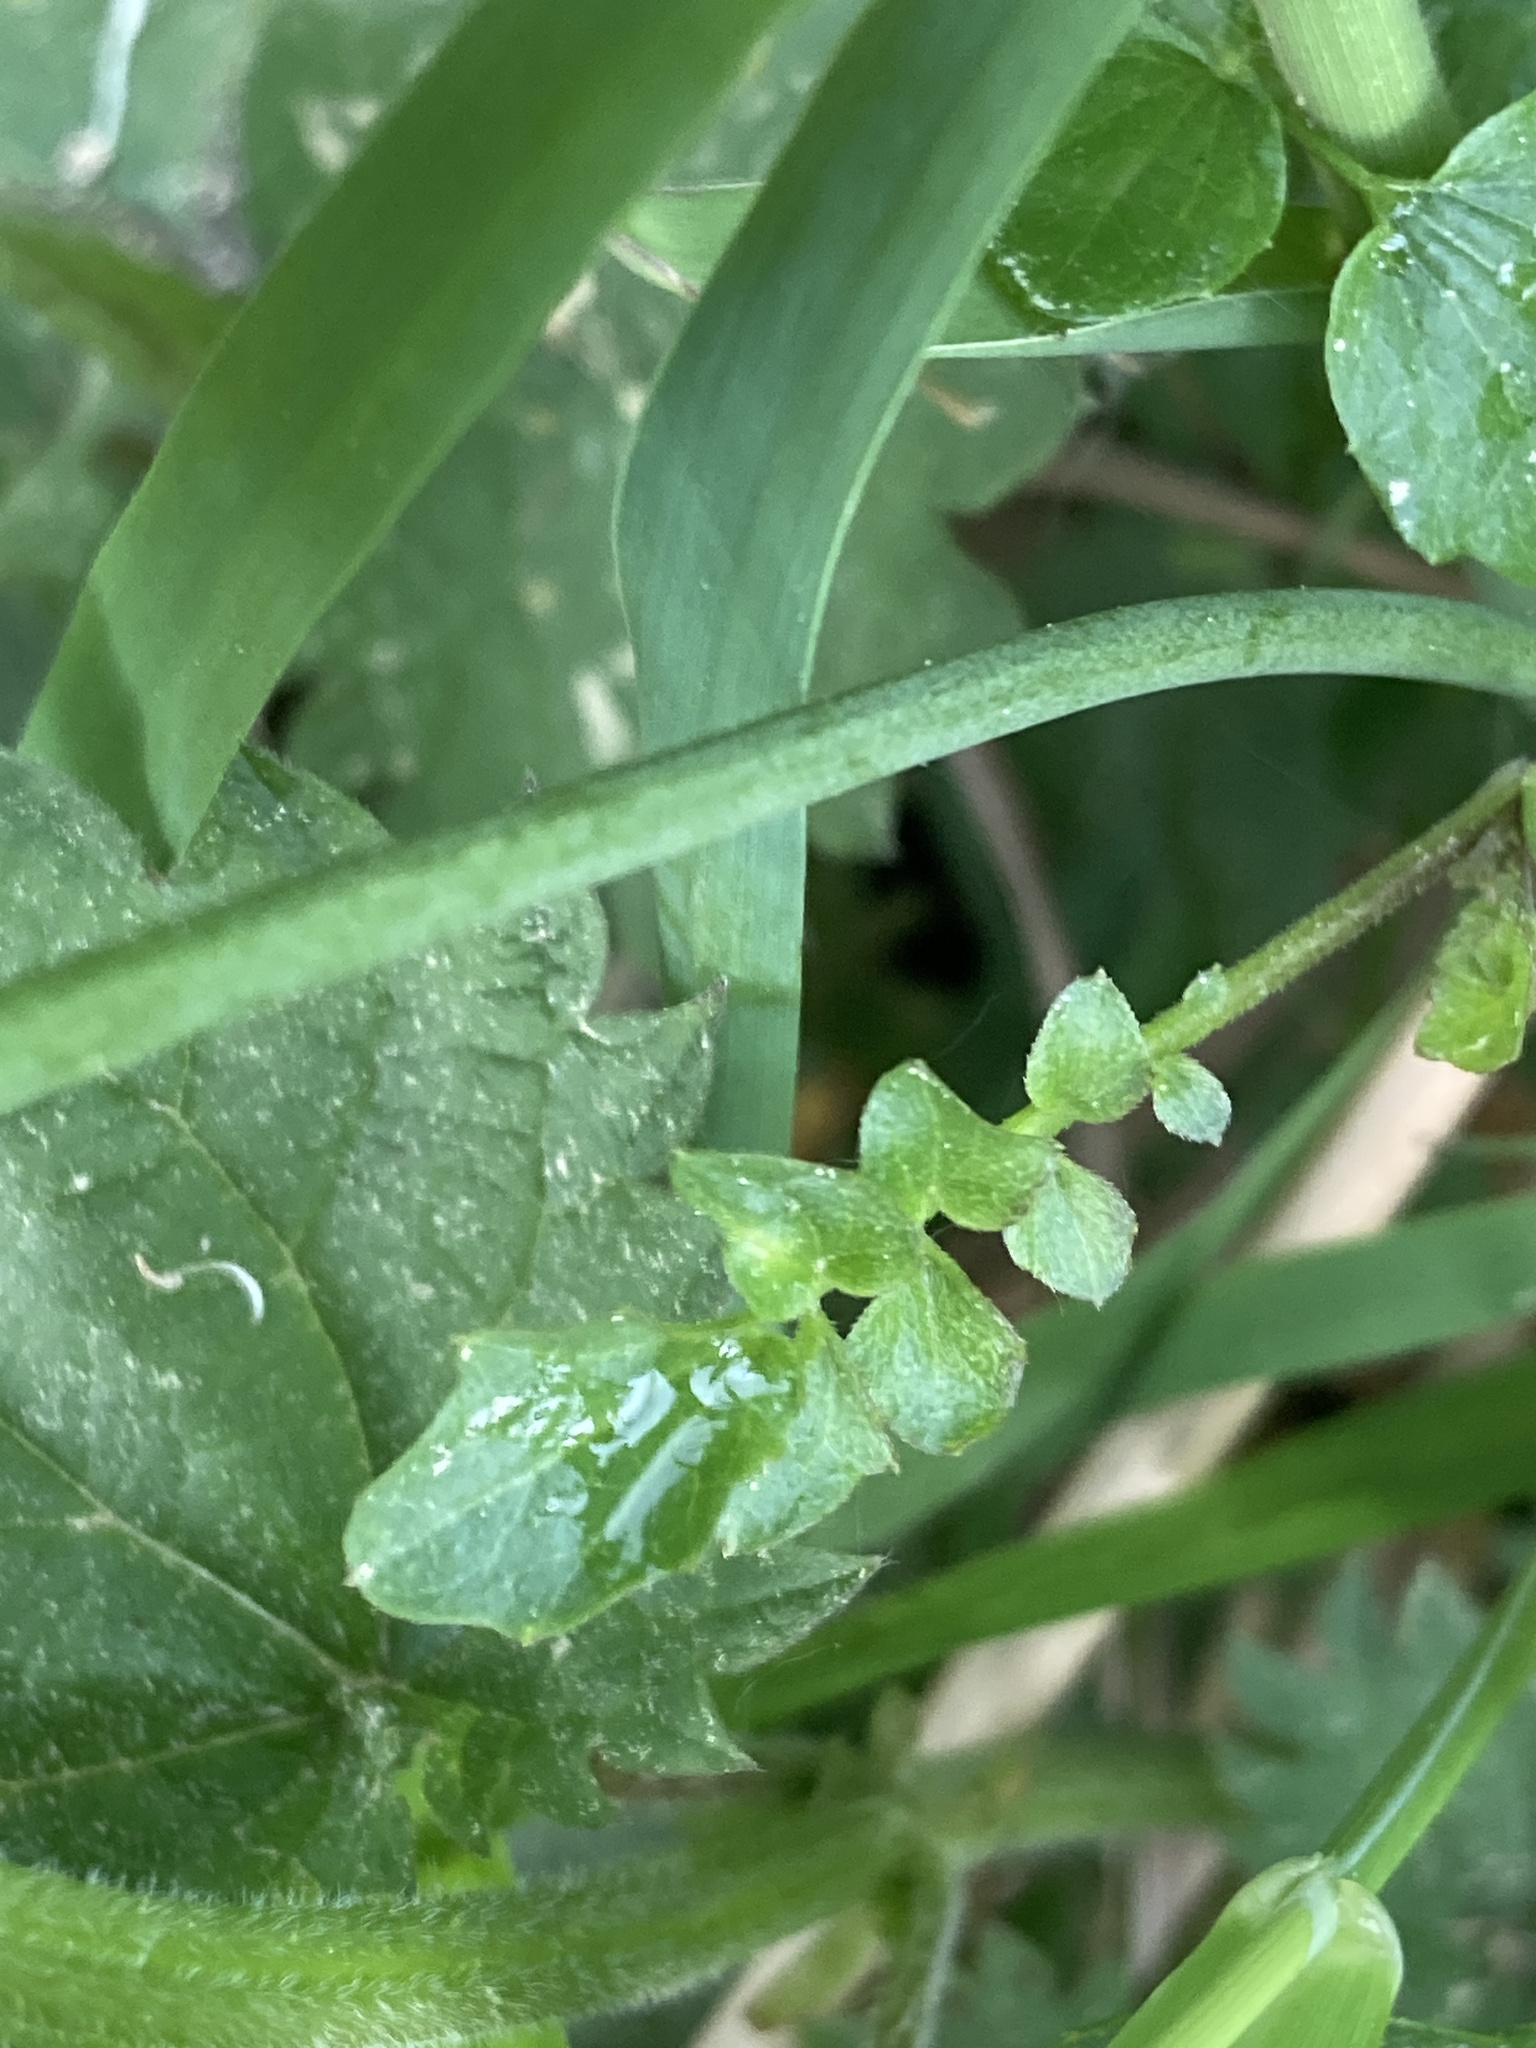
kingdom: Plantae
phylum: Tracheophyta
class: Magnoliopsida
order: Brassicales
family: Brassicaceae
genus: Cardamine
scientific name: Cardamine dentata
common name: Toothed bittercress
